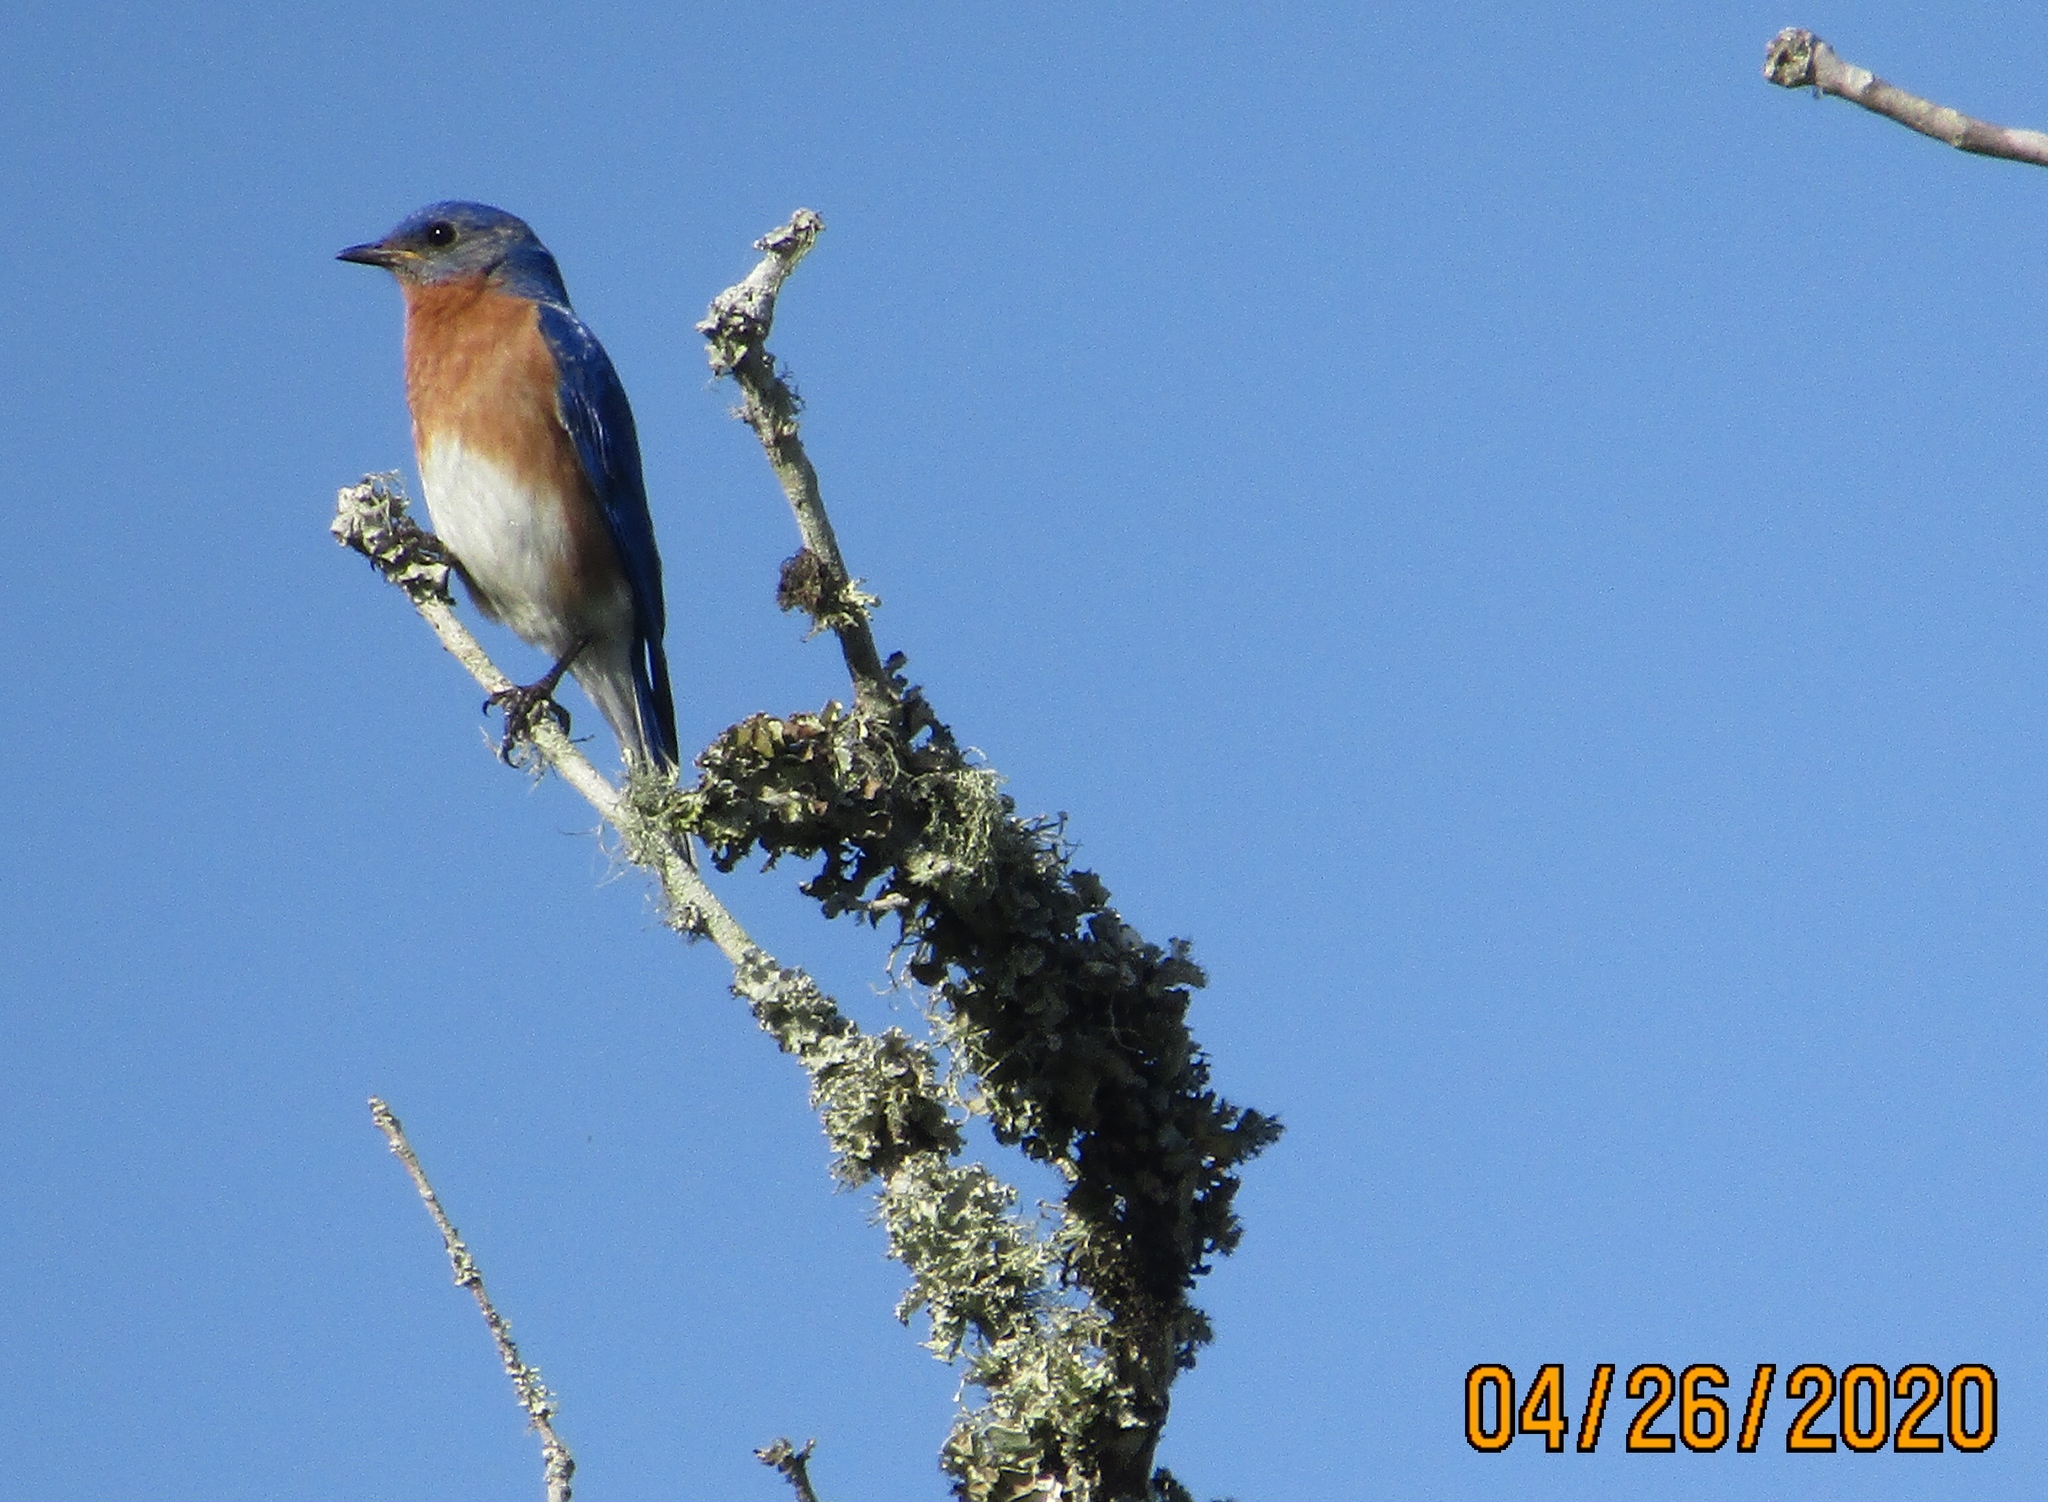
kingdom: Animalia
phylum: Chordata
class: Aves
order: Passeriformes
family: Turdidae
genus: Sialia
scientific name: Sialia sialis
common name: Eastern bluebird
